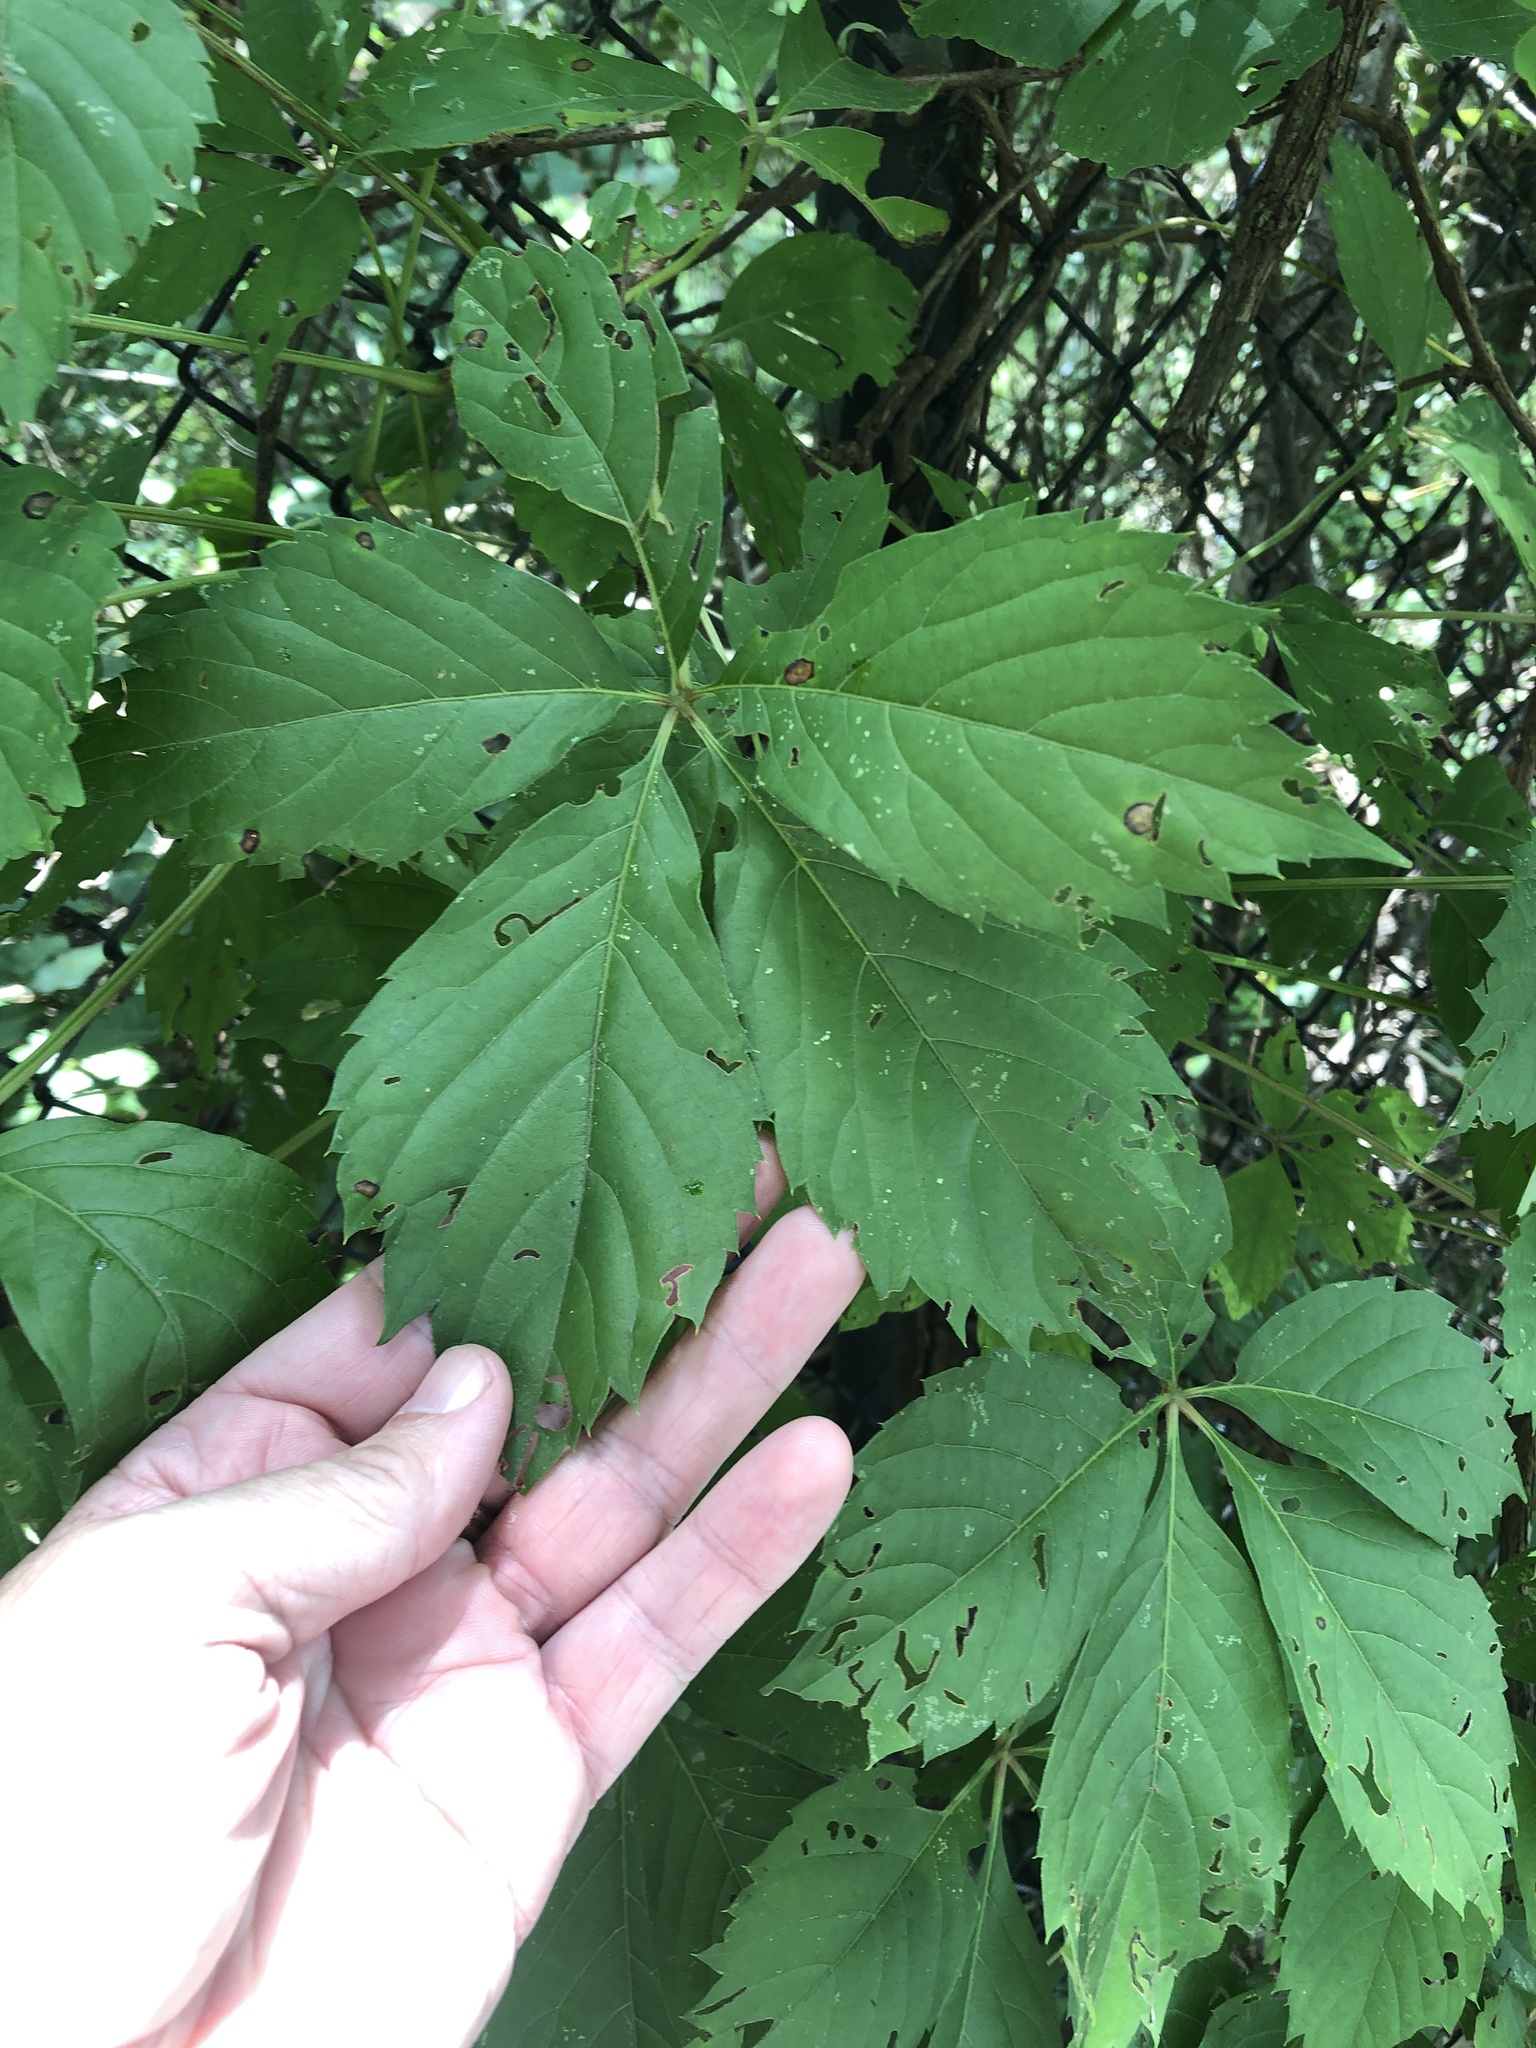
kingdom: Plantae
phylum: Tracheophyta
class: Magnoliopsida
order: Vitales
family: Vitaceae
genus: Parthenocissus
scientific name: Parthenocissus quinquefolia
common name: Virginia-creeper
